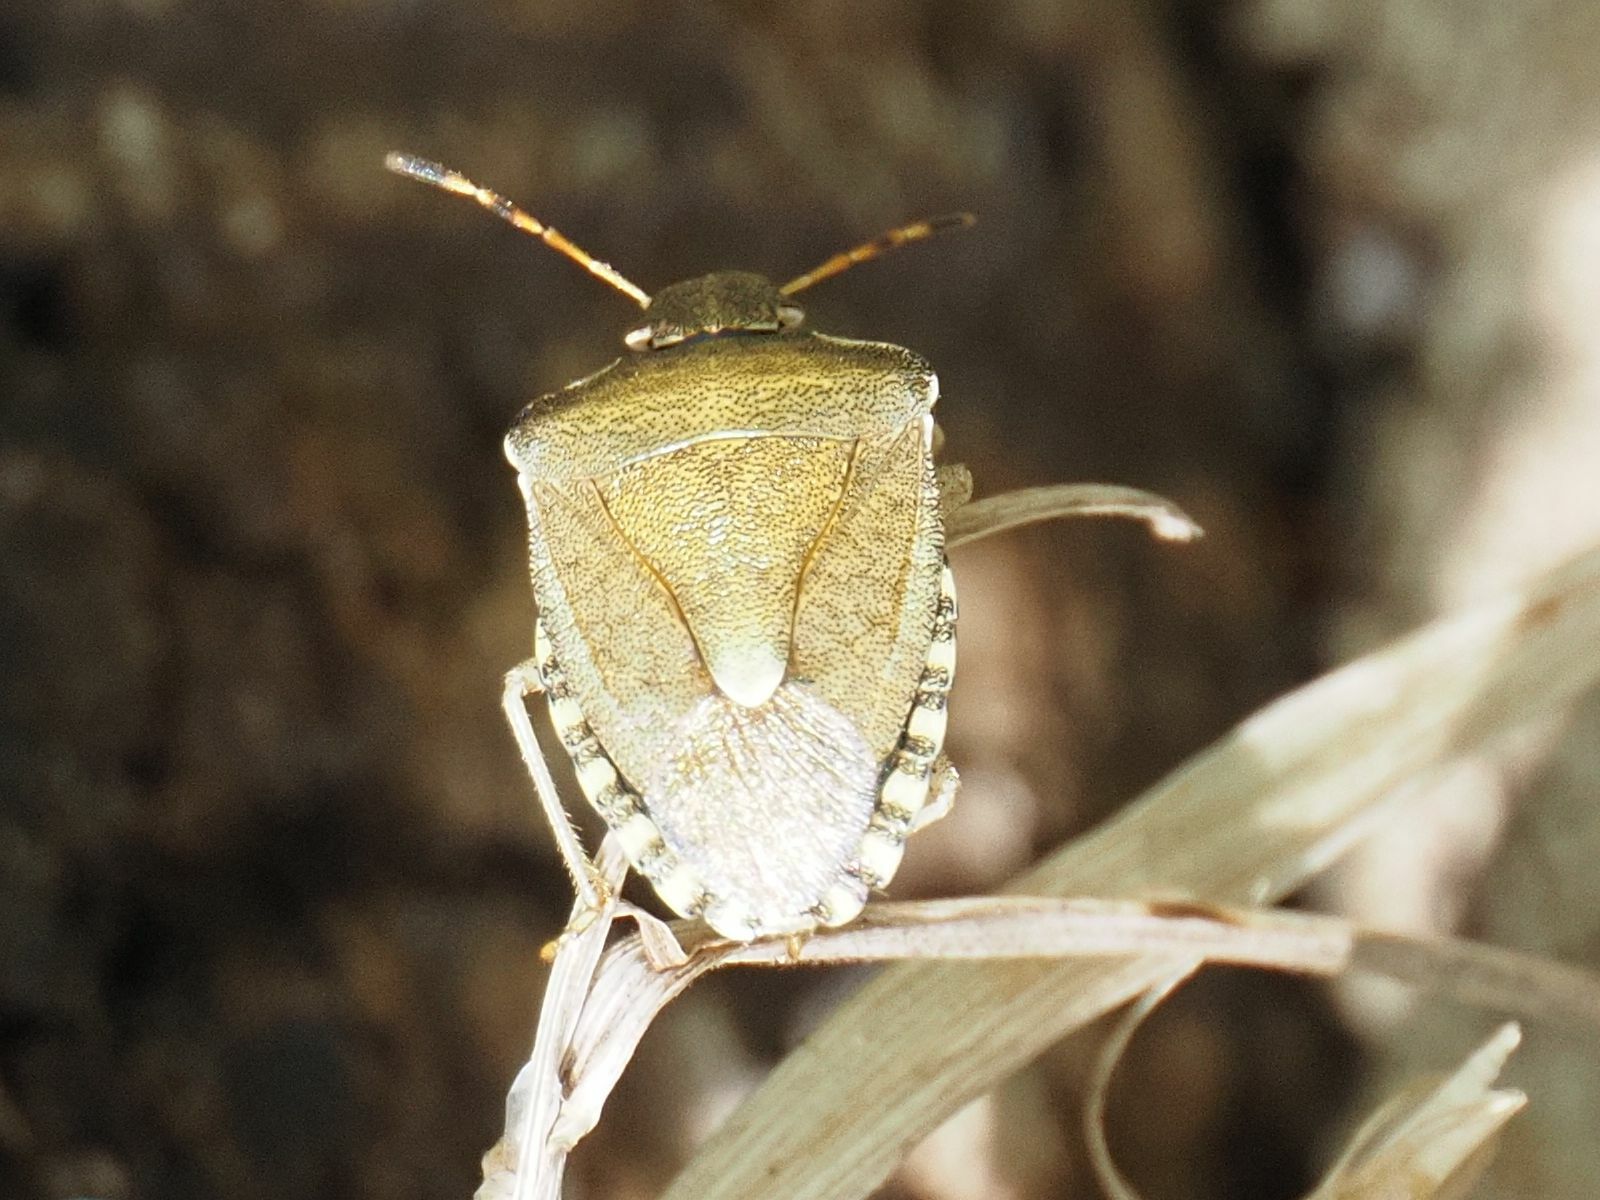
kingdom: Animalia
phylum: Arthropoda
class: Insecta
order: Hemiptera
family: Pentatomidae
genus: Holcostethus
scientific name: Holcostethus strictus
